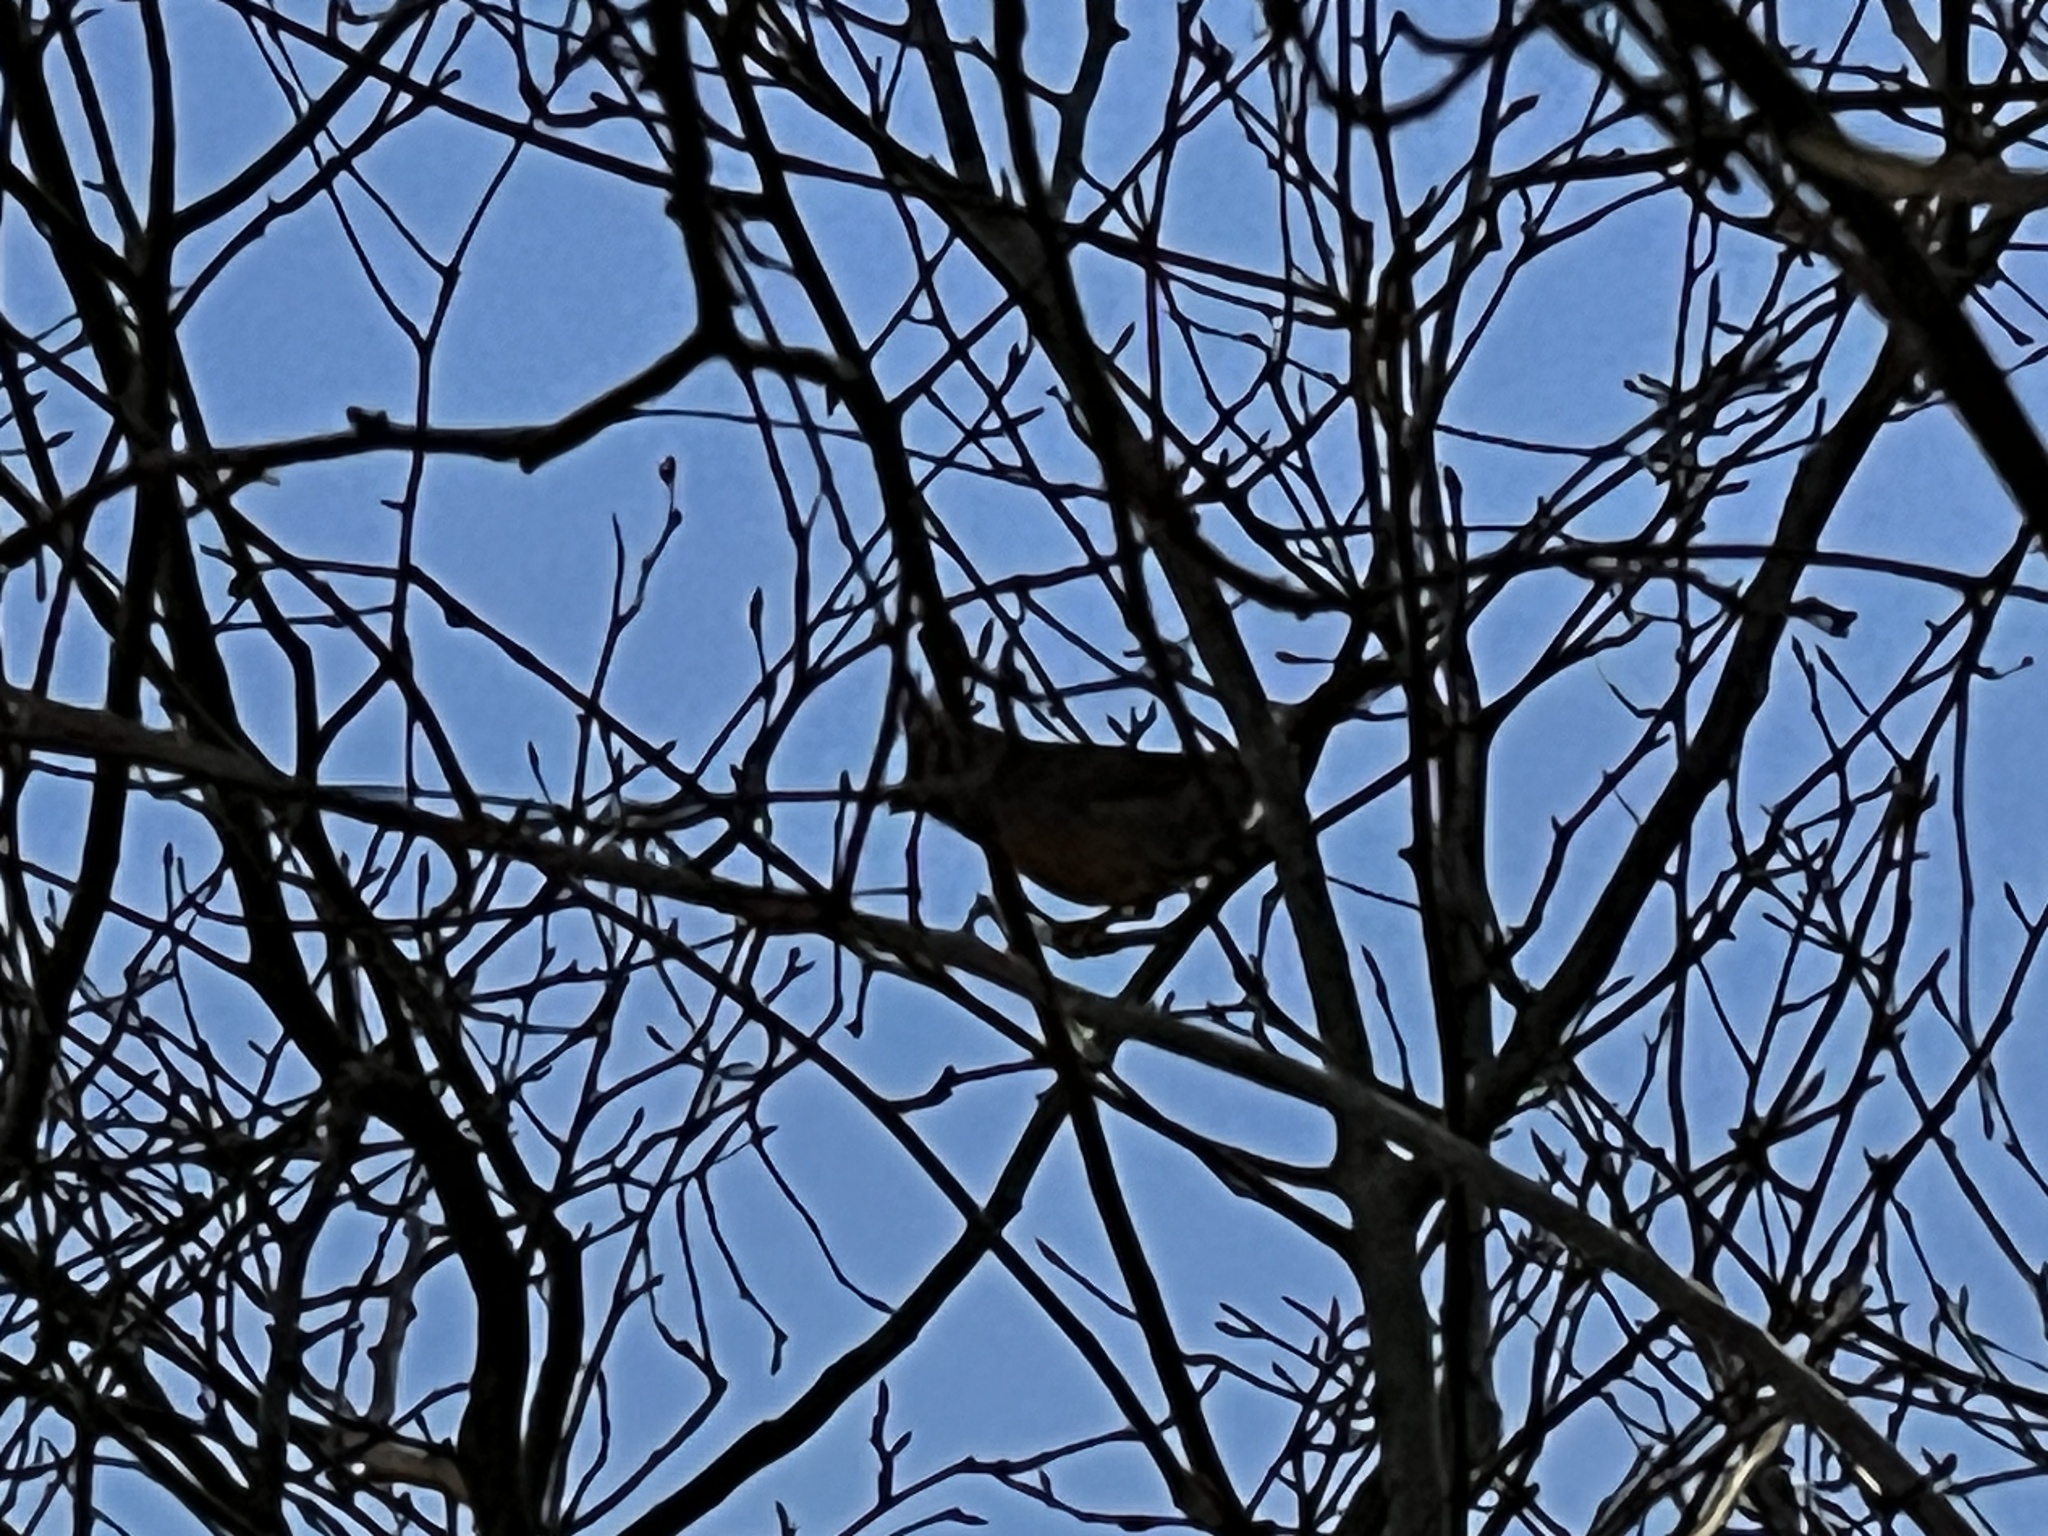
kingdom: Animalia
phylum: Chordata
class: Aves
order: Passeriformes
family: Cardinalidae
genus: Cardinalis
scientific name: Cardinalis cardinalis
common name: Northern cardinal
